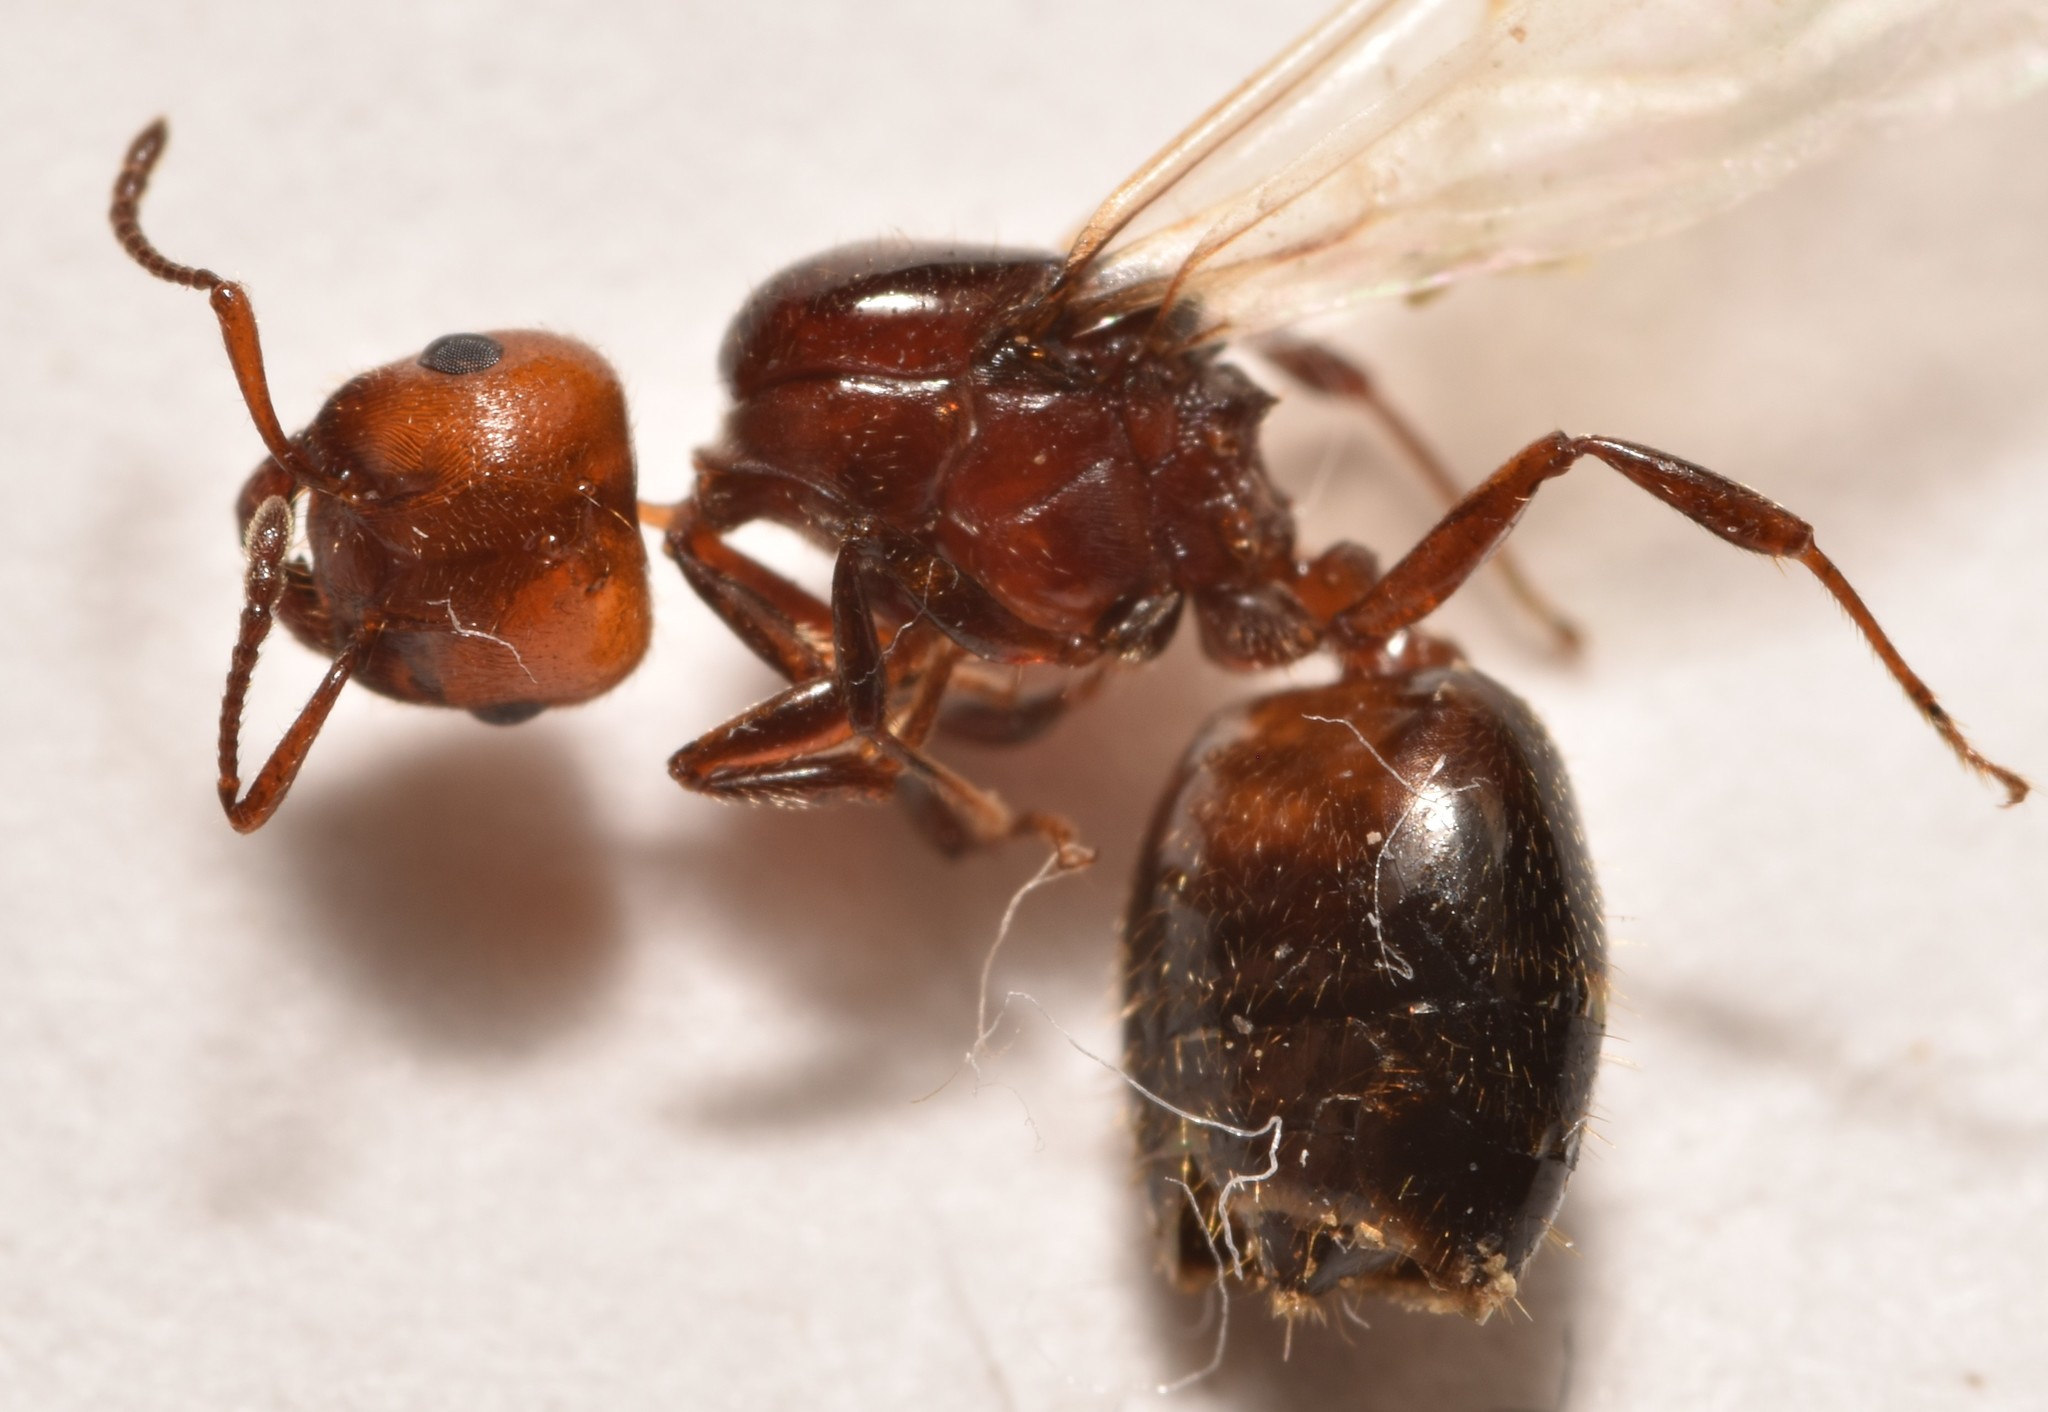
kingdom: Animalia
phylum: Arthropoda
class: Insecta
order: Hymenoptera
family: Formicidae
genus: Crematogaster
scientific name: Crematogaster laeviuscula
